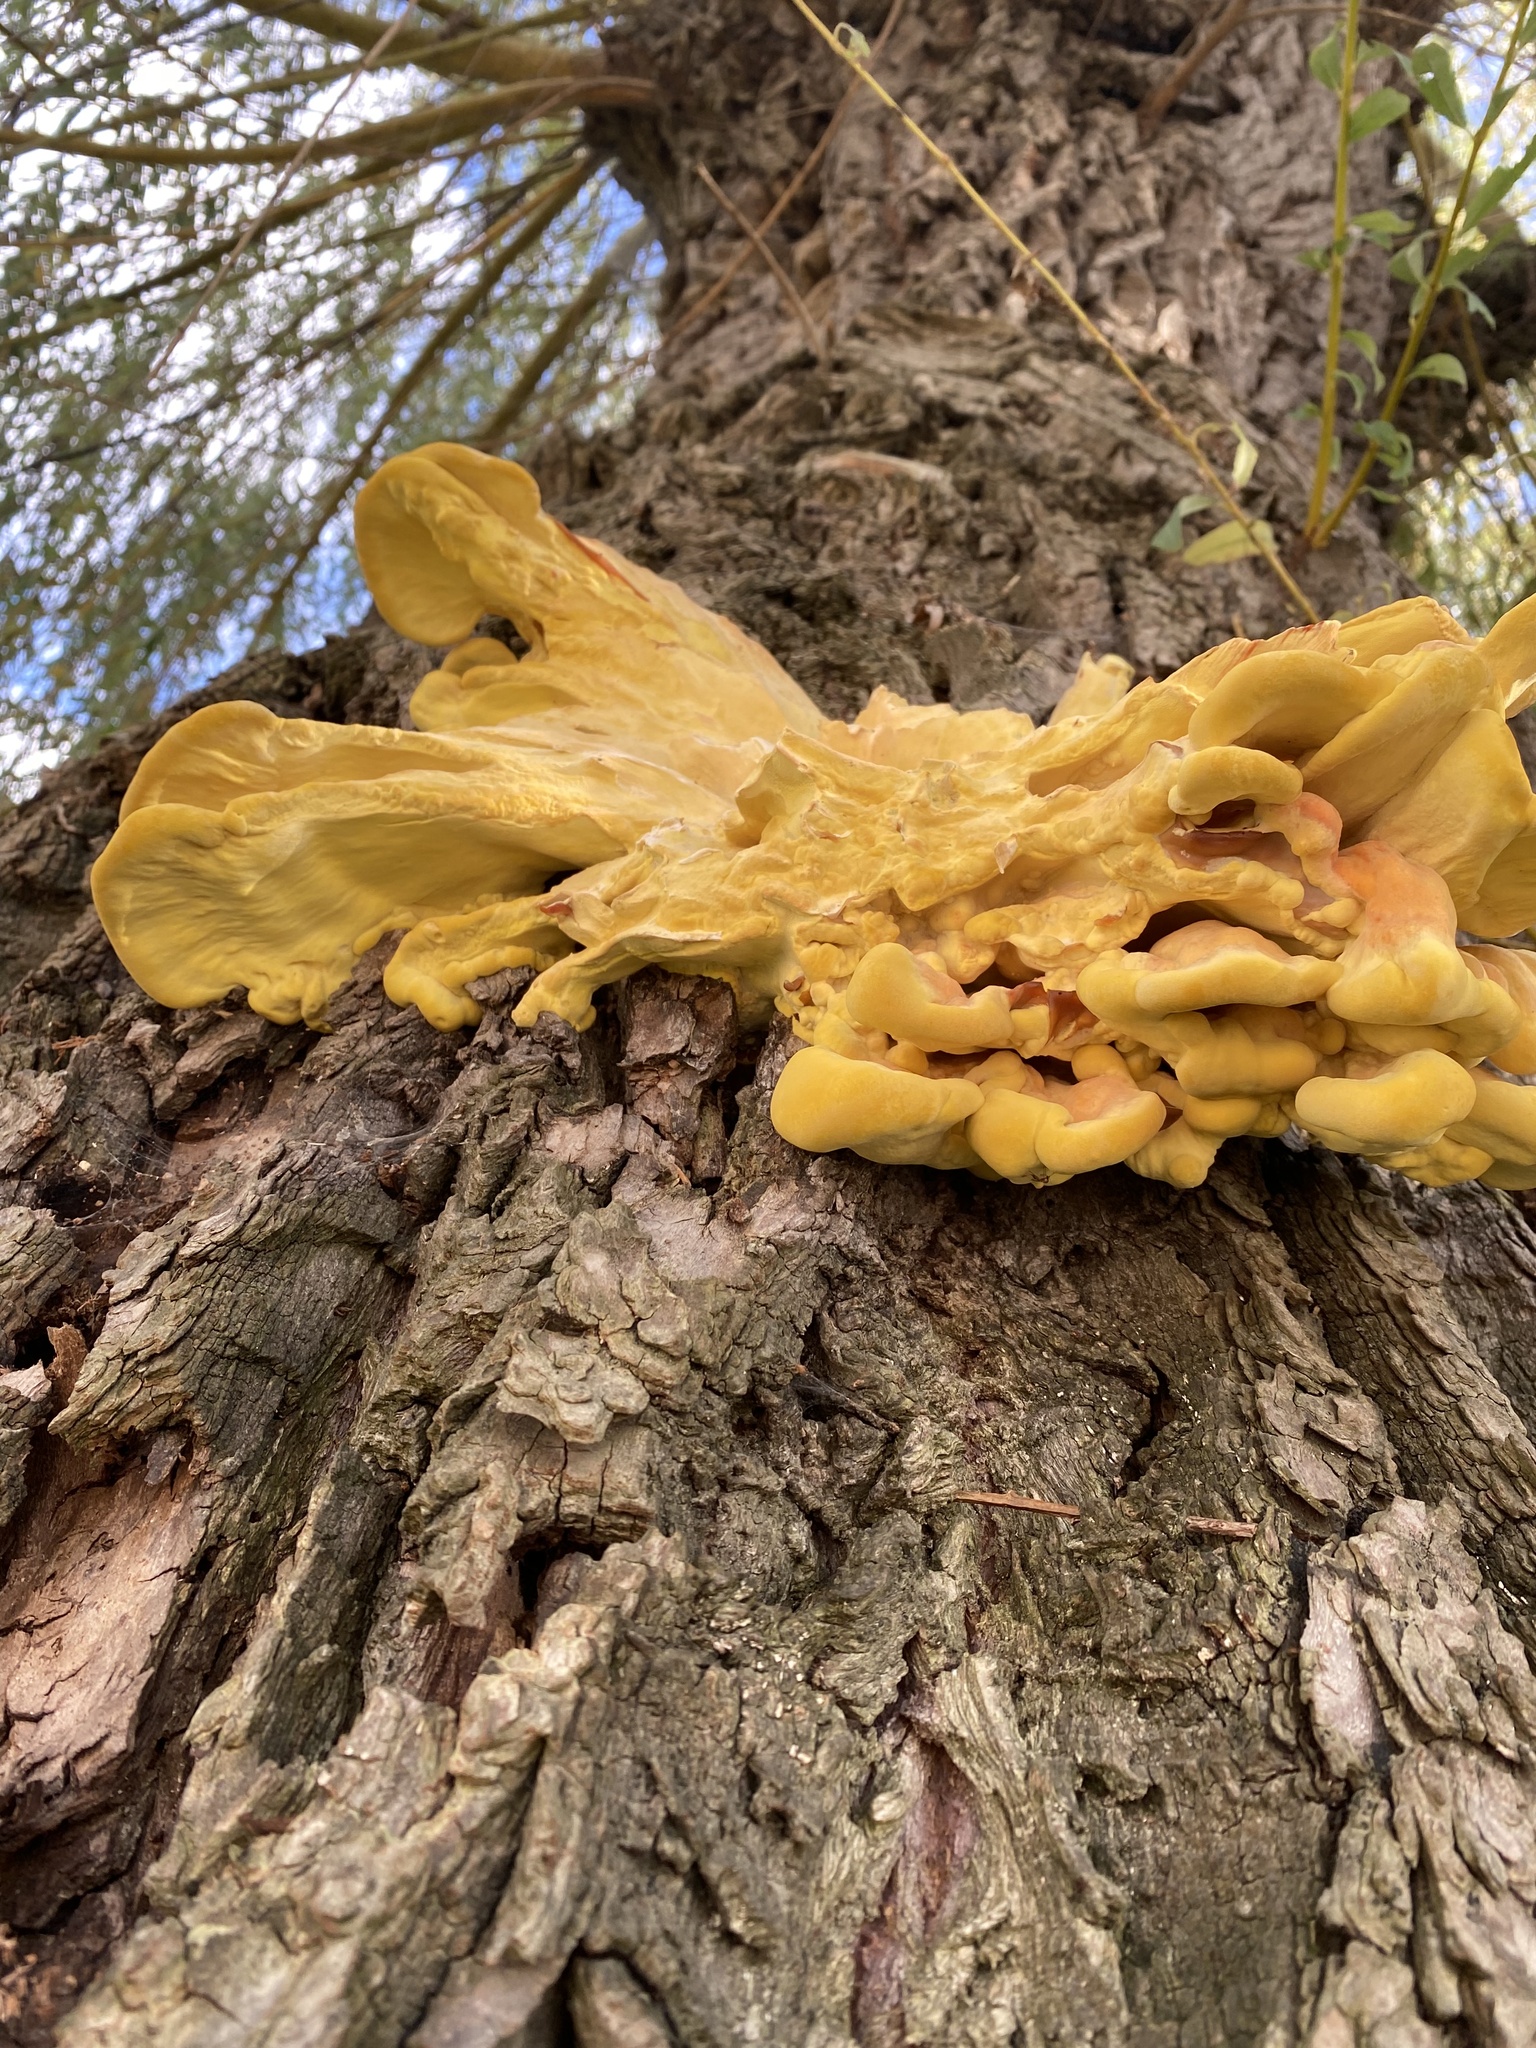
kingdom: Fungi
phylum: Basidiomycota
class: Agaricomycetes
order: Polyporales
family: Laetiporaceae
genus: Laetiporus
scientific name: Laetiporus sulphureus
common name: Chicken of the woods
